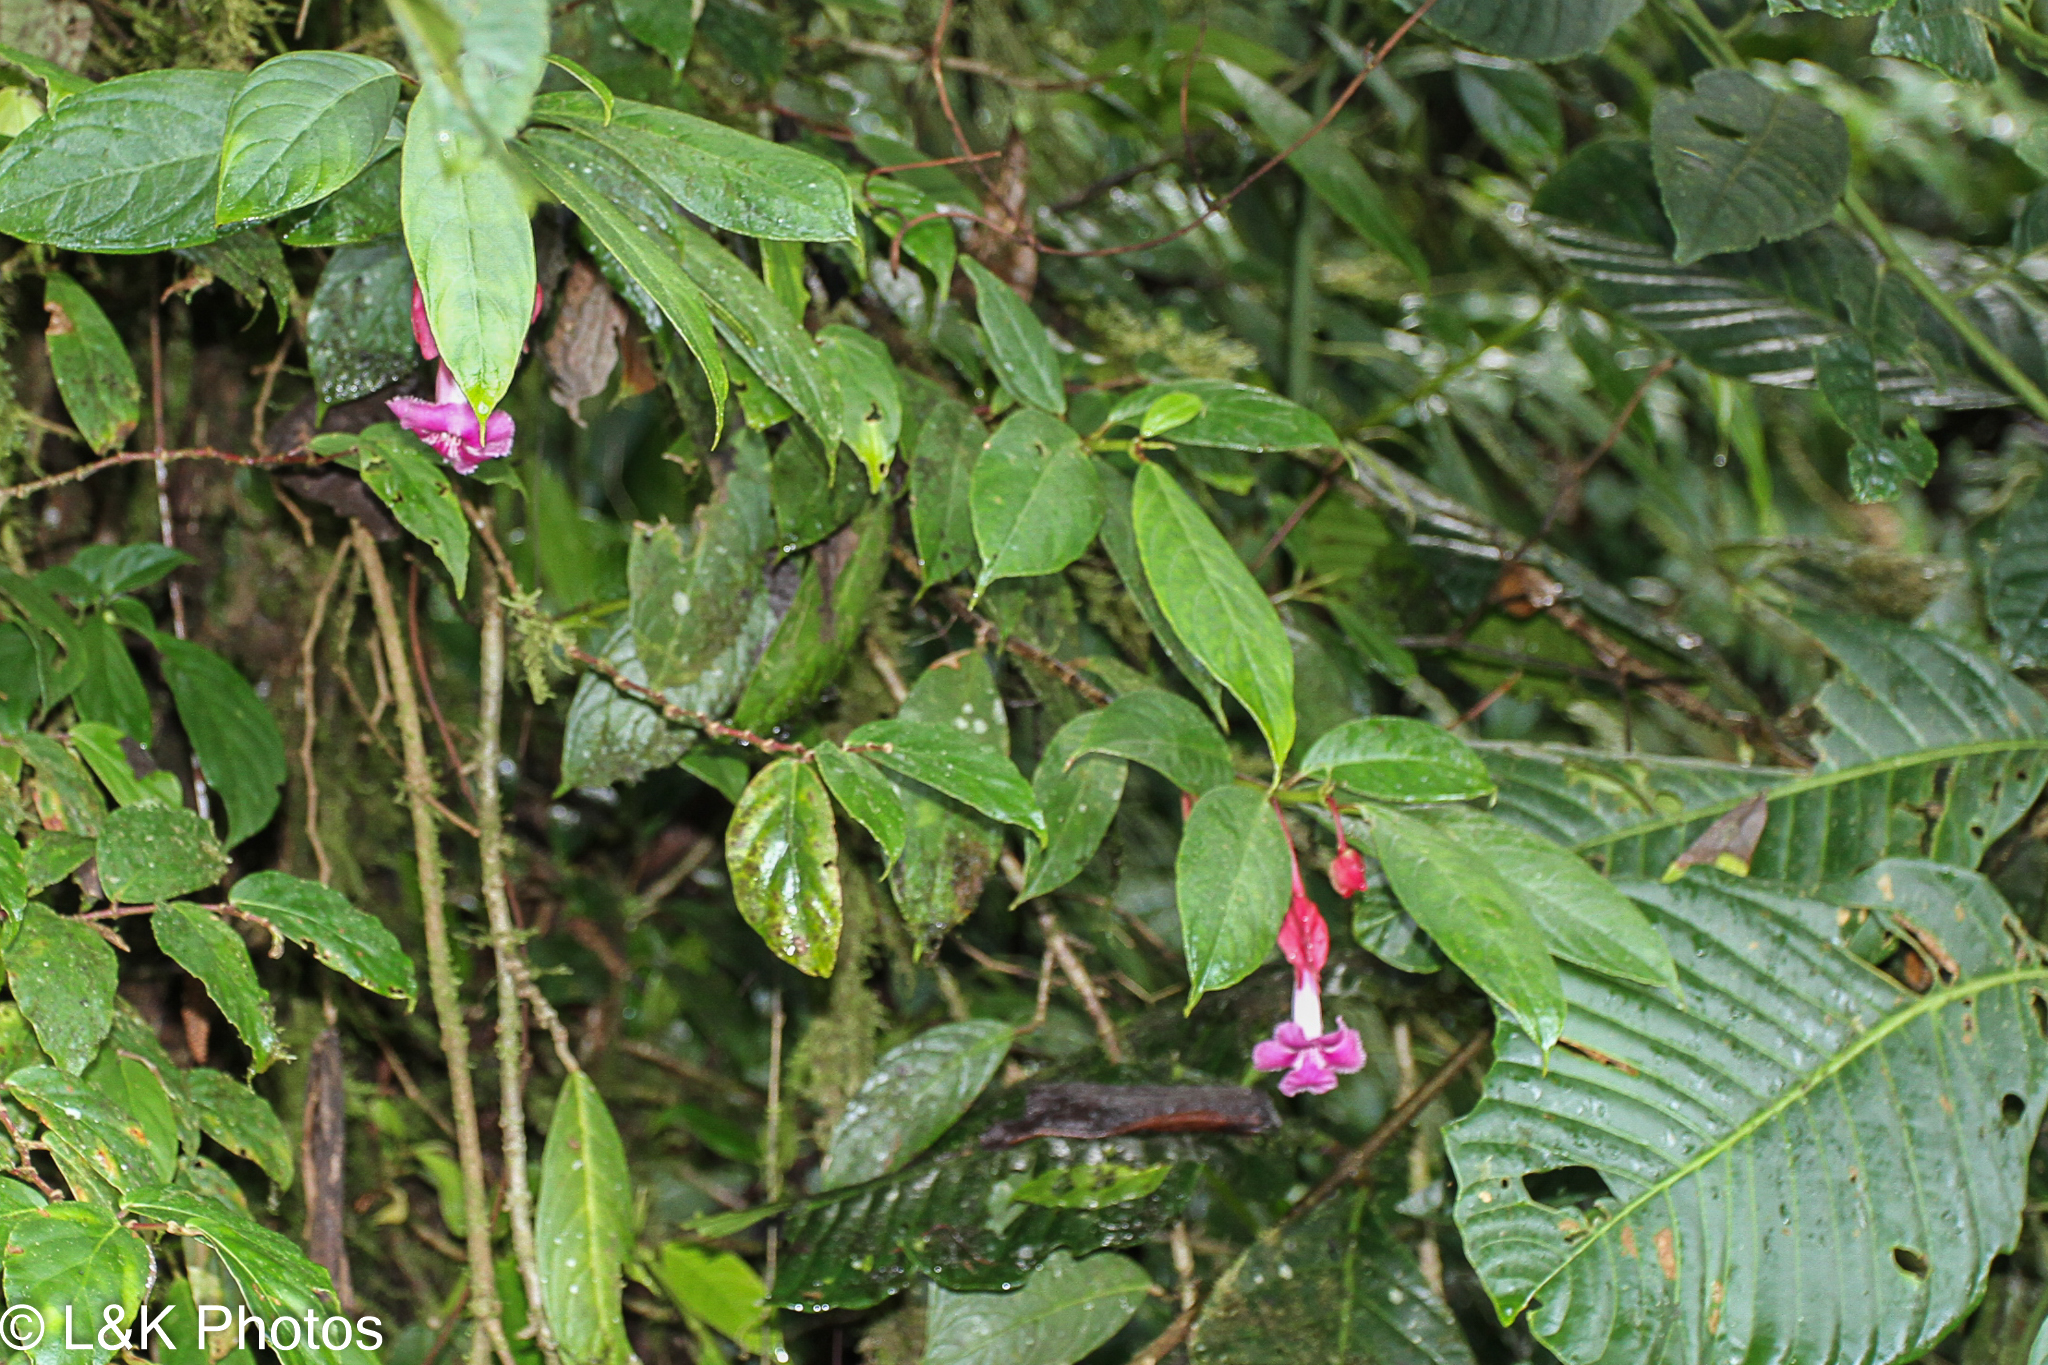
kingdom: Plantae
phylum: Tracheophyta
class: Magnoliopsida
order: Lamiales
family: Gesneriaceae
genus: Drymonia
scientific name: Drymonia conchocalyx
